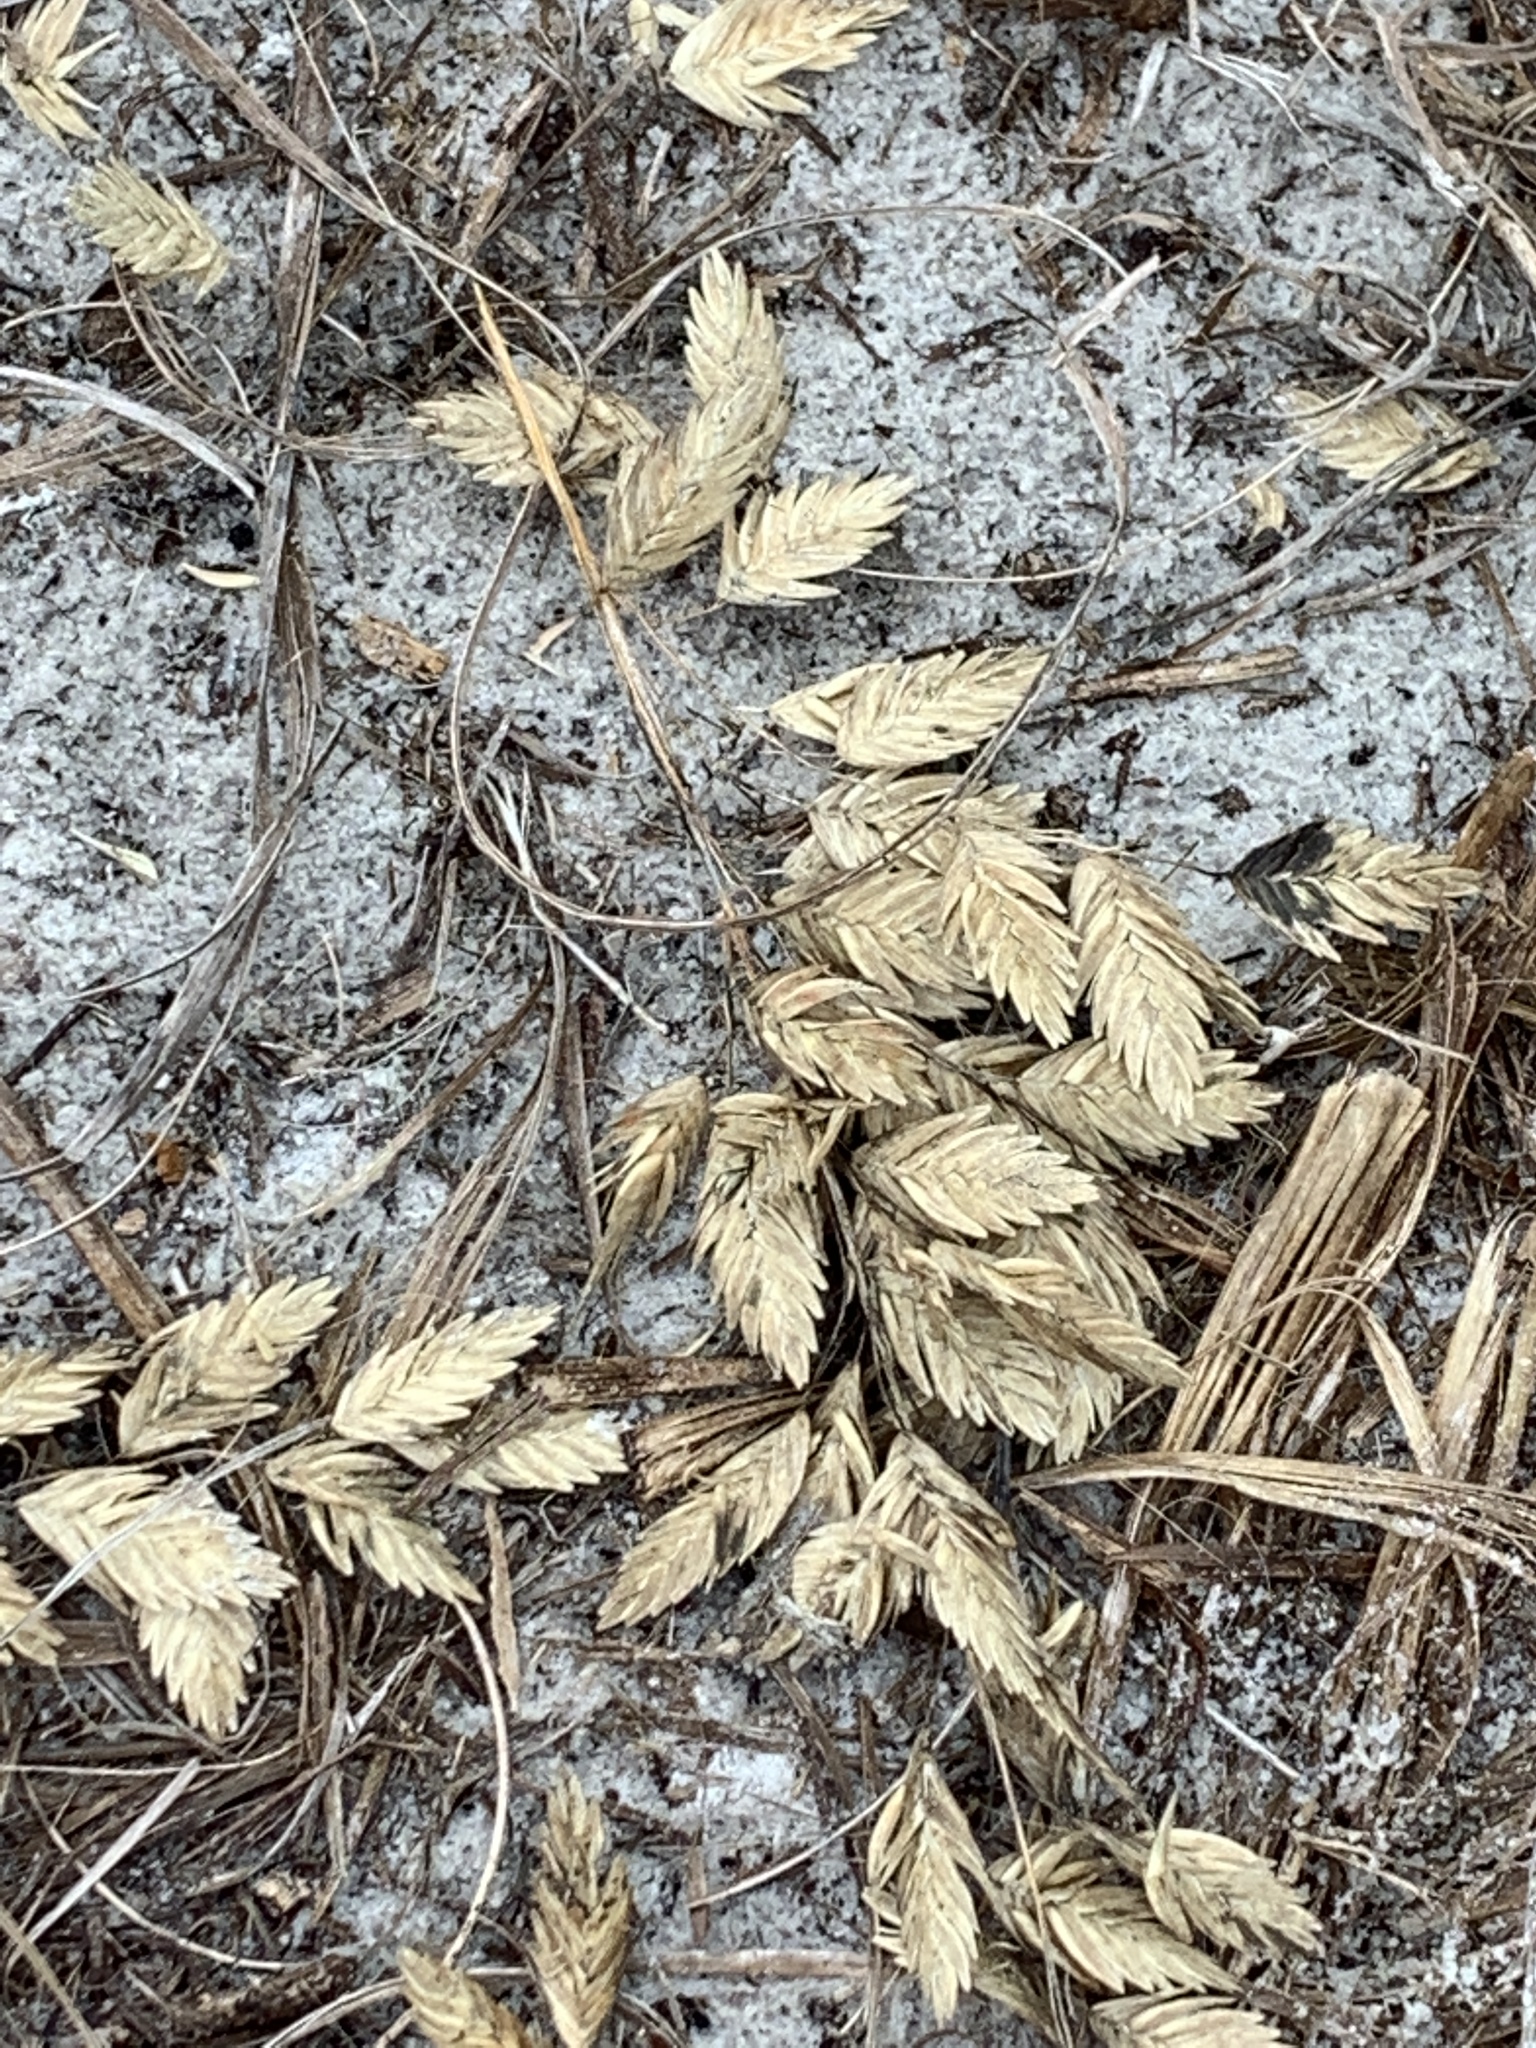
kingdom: Plantae
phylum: Tracheophyta
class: Liliopsida
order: Poales
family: Poaceae
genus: Uniola
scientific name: Uniola paniculata
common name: Seaside-oats
